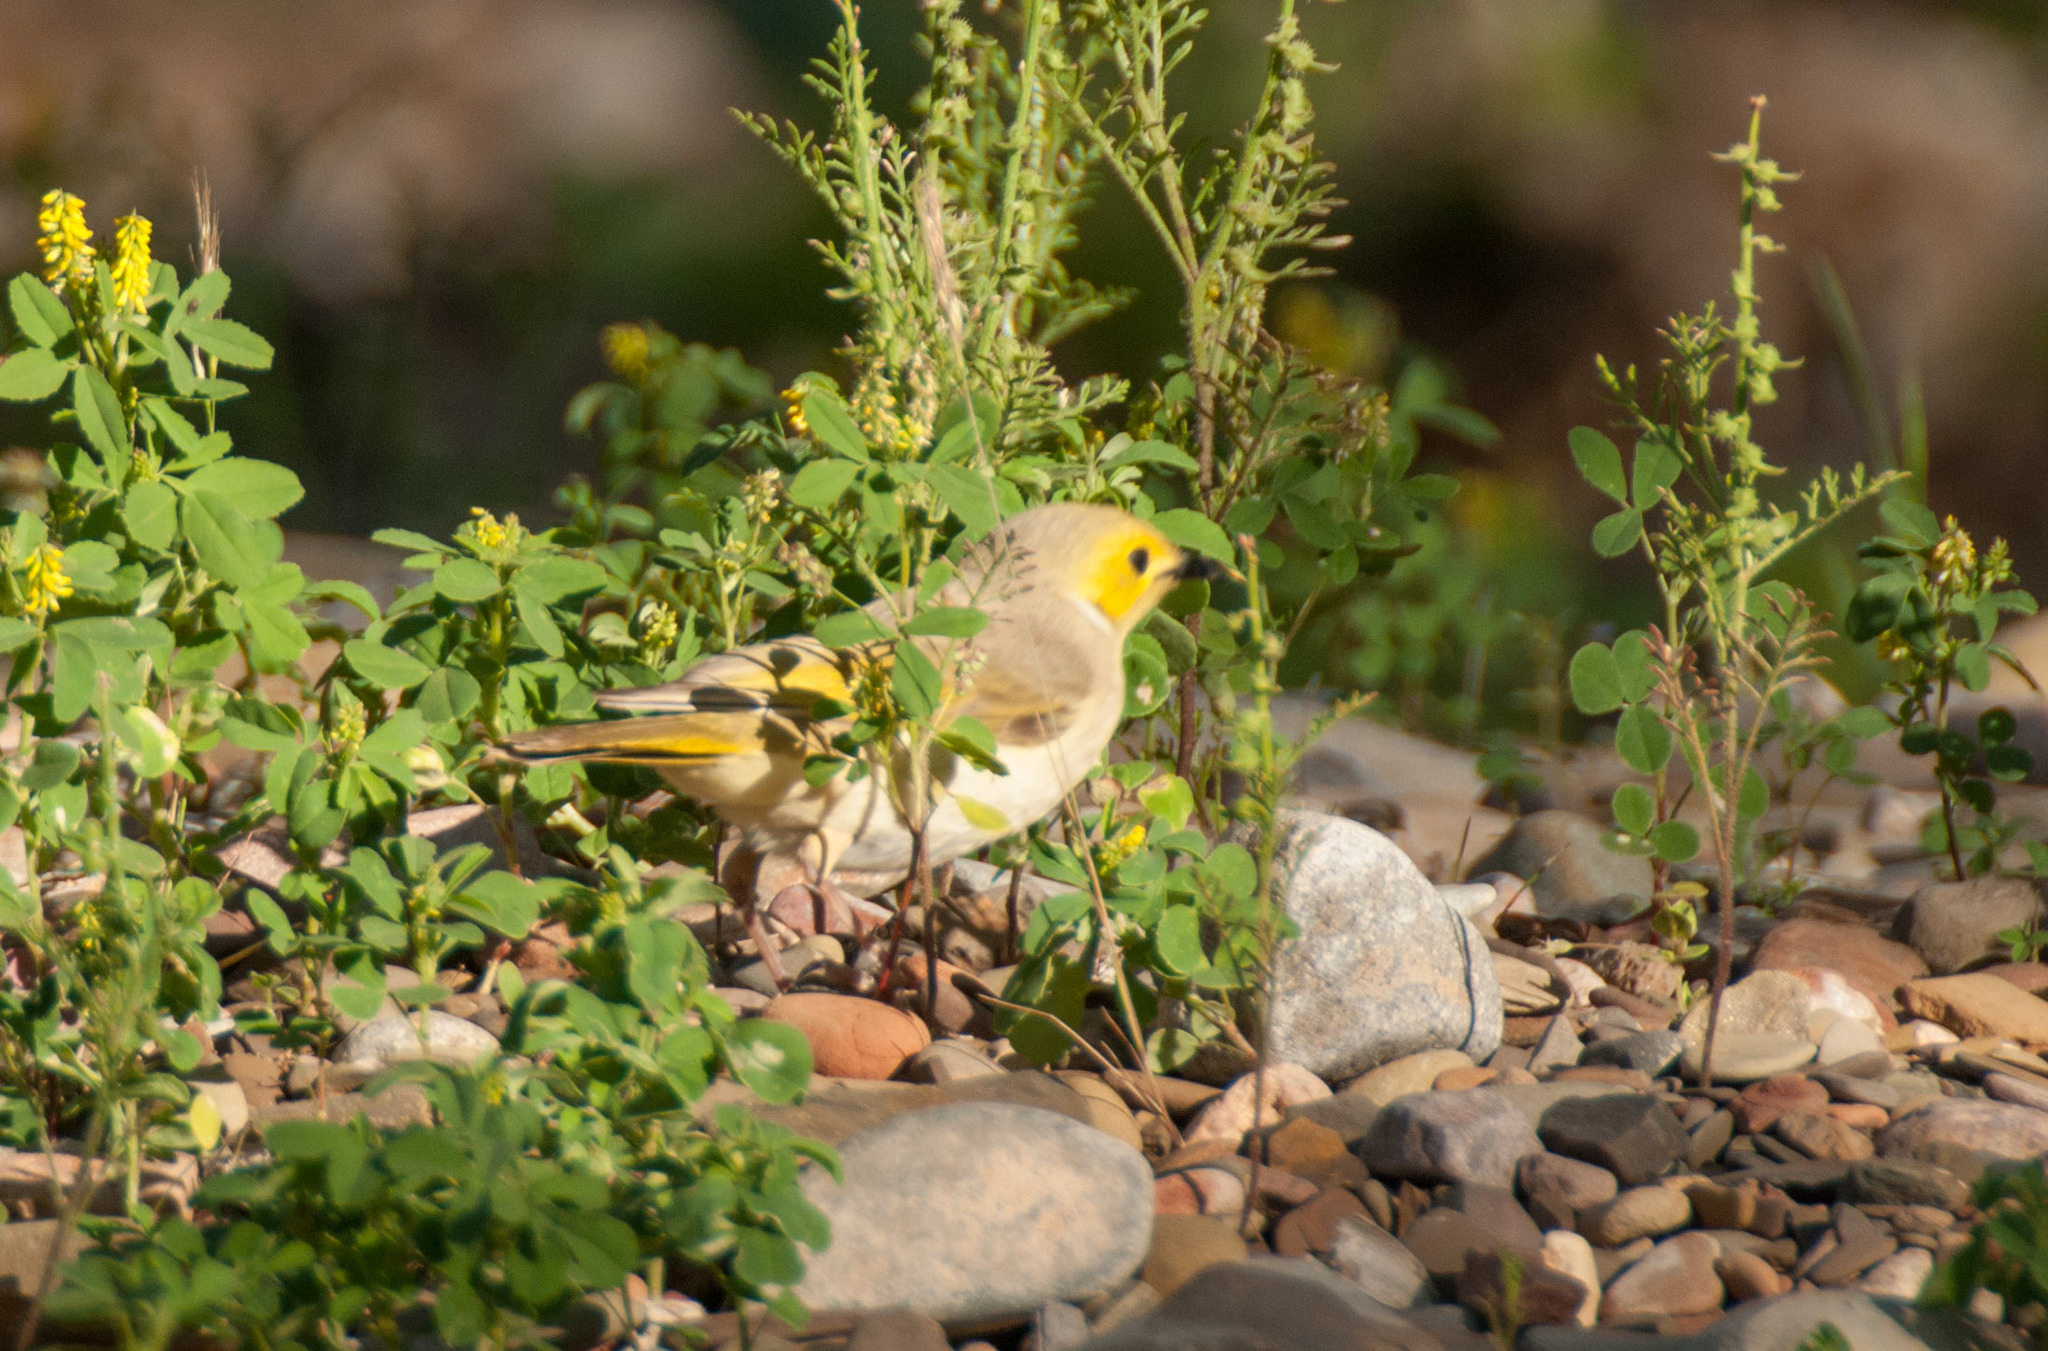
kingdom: Animalia
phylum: Chordata
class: Aves
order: Passeriformes
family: Meliphagidae
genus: Ptilotula
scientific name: Ptilotula penicillata
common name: White-plumed honeyeater
